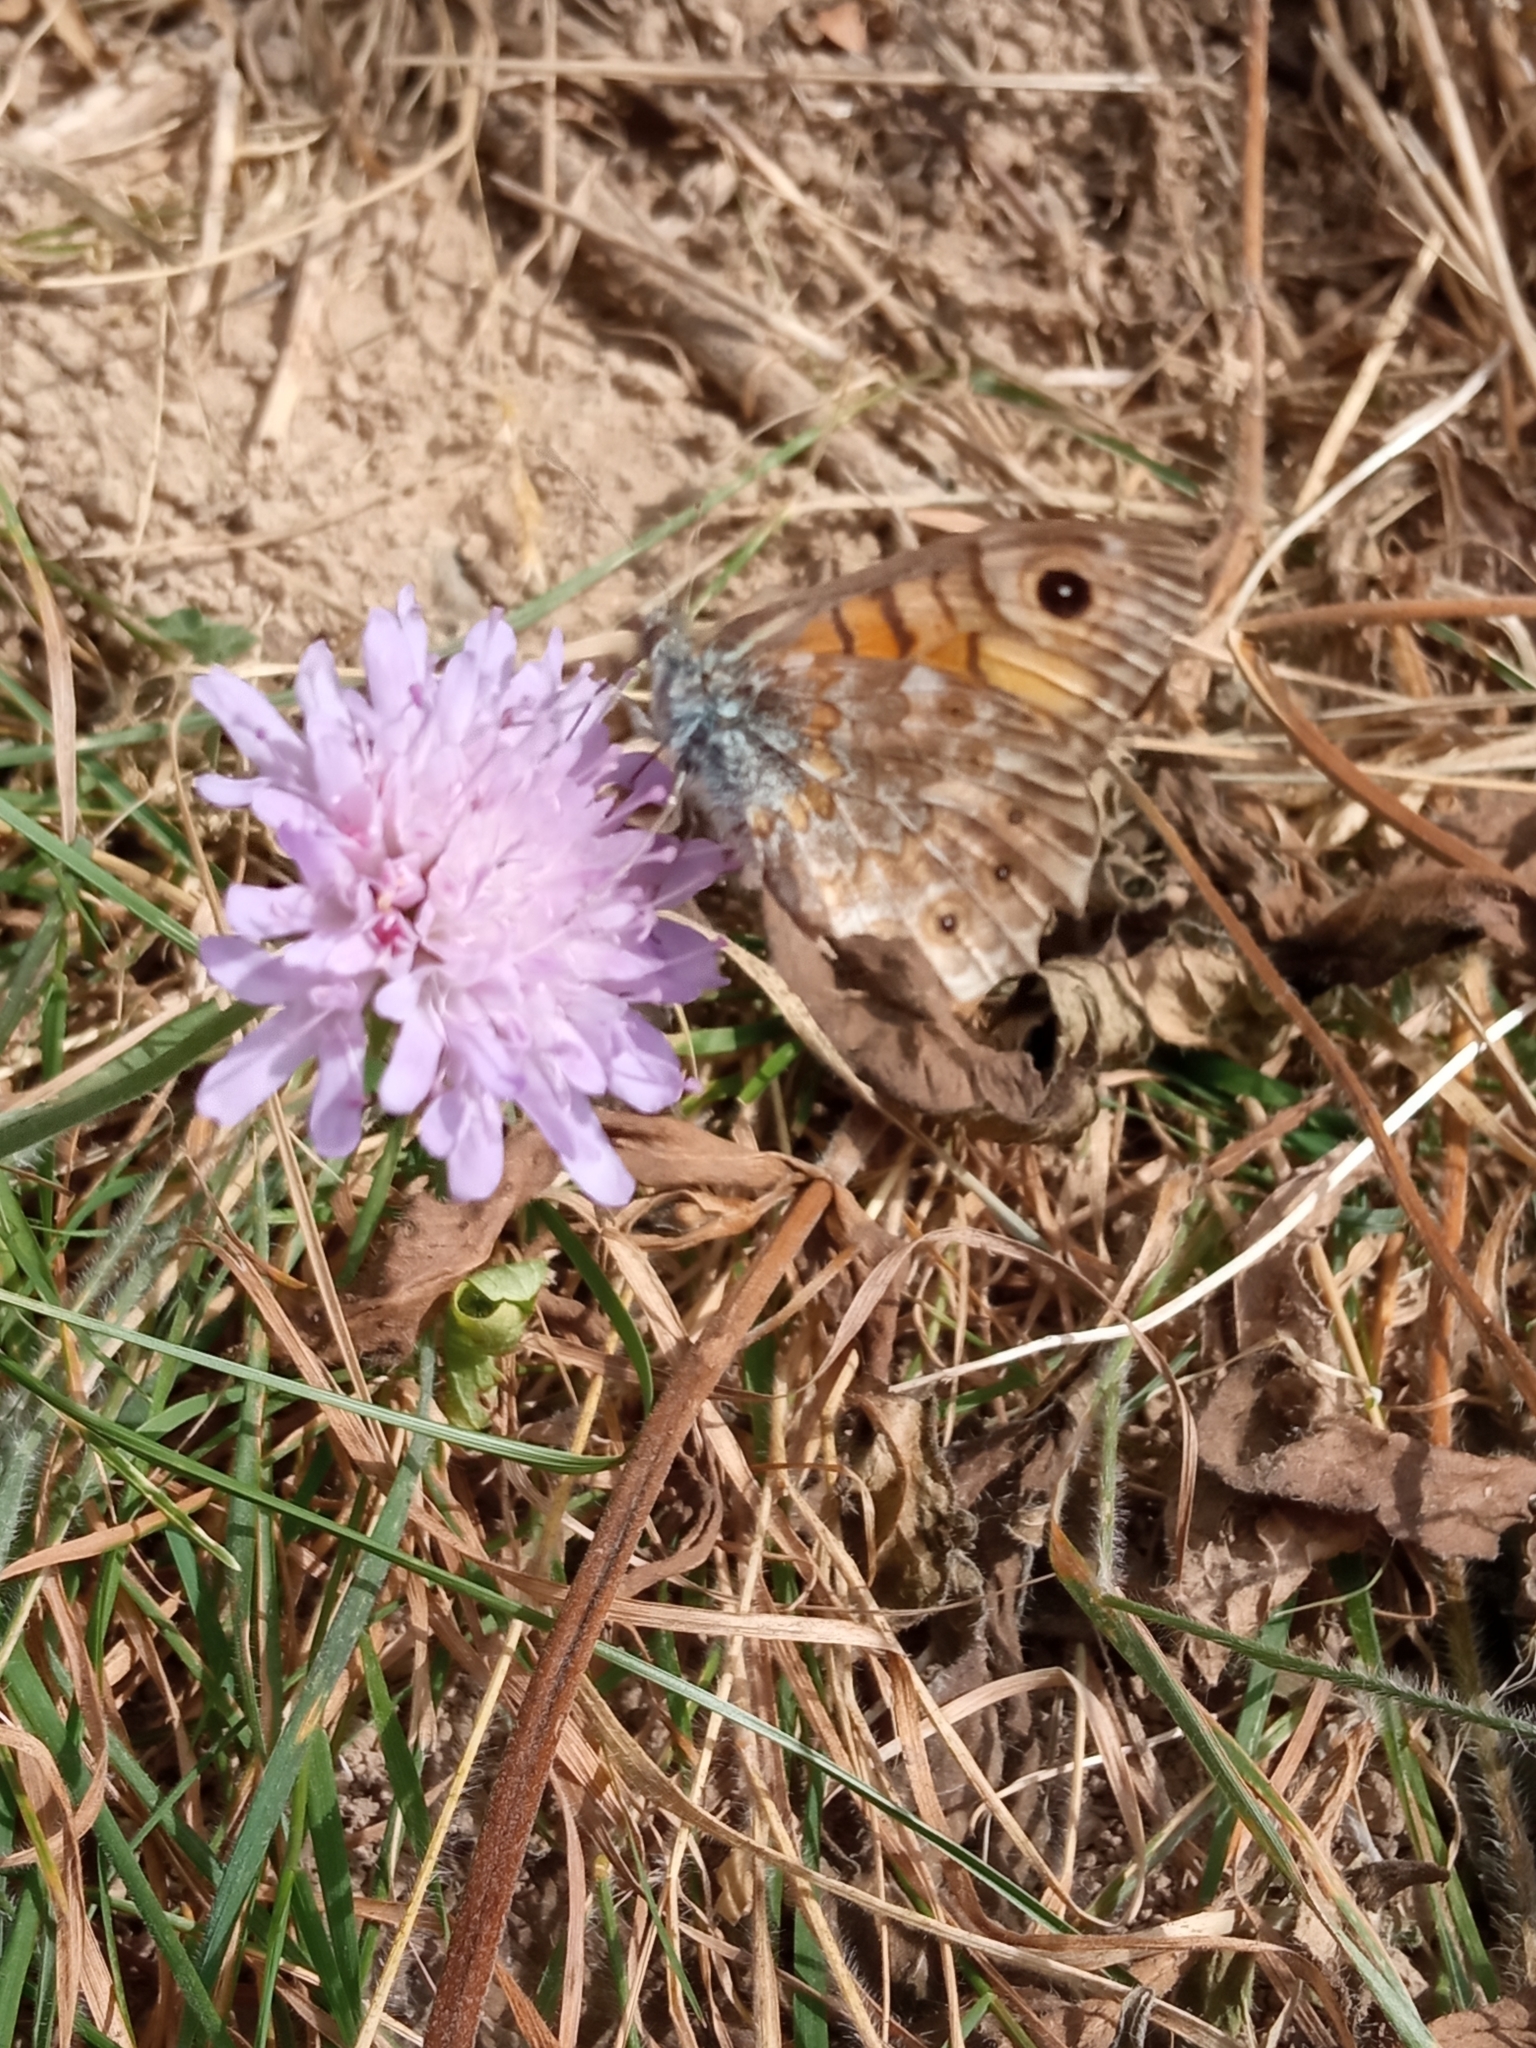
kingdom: Animalia
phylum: Arthropoda
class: Insecta
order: Lepidoptera
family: Nymphalidae
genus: Pararge
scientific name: Pararge Lasiommata megera
